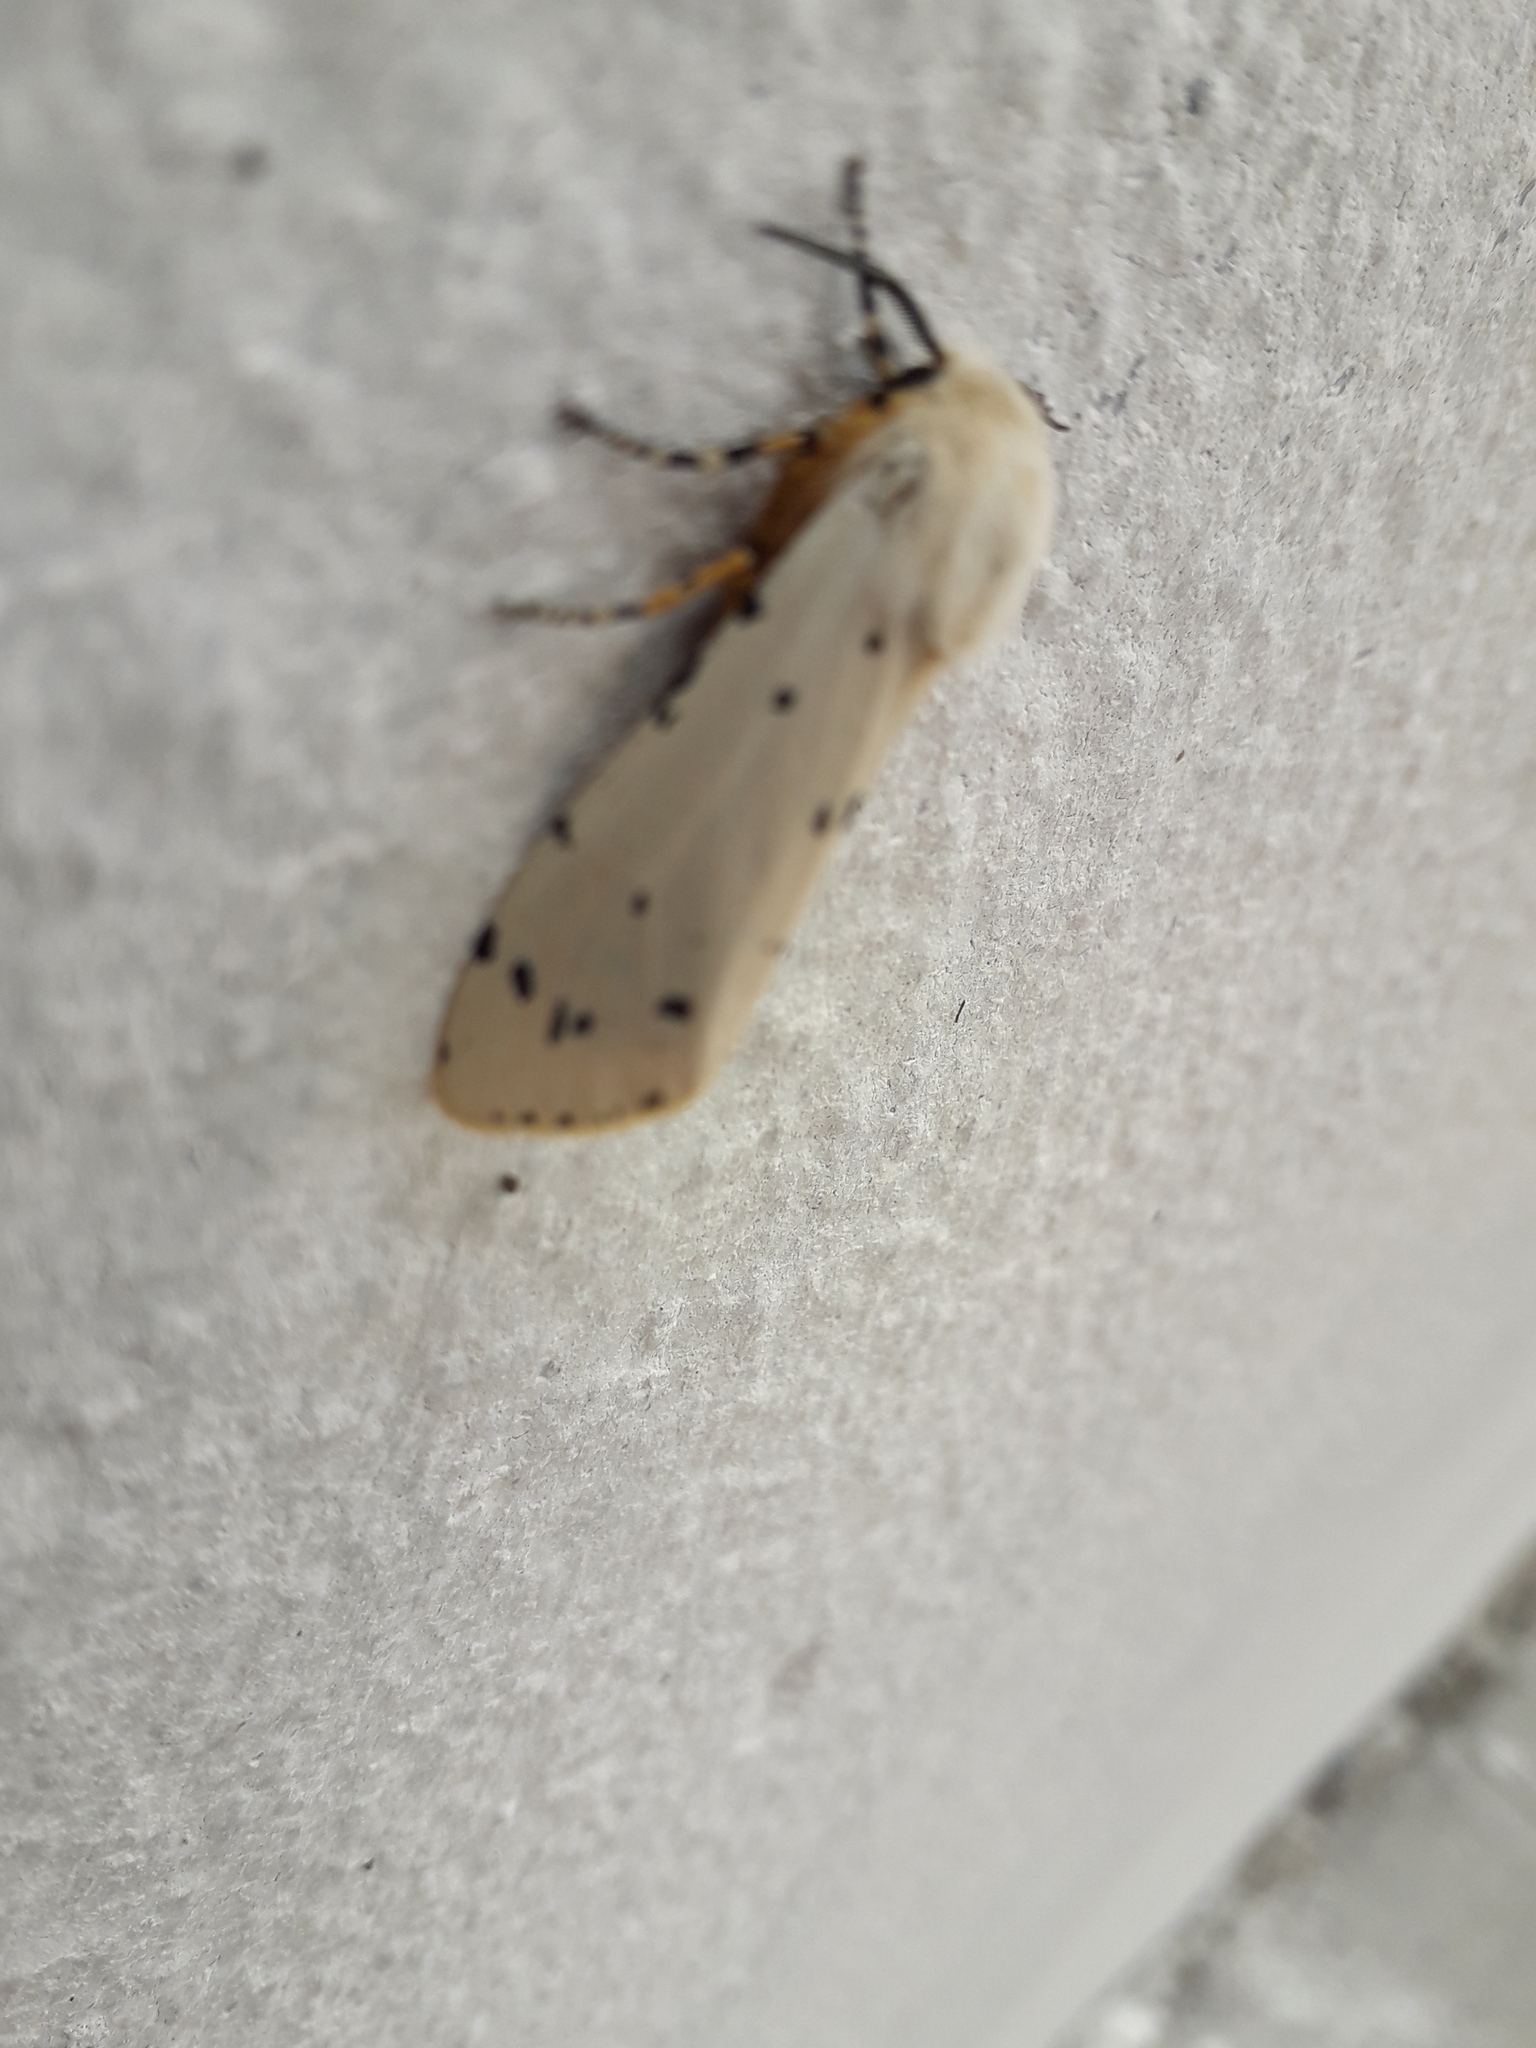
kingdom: Animalia
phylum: Arthropoda
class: Insecta
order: Lepidoptera
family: Erebidae
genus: Estigmene
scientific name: Estigmene acrea
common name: Salt marsh moth
